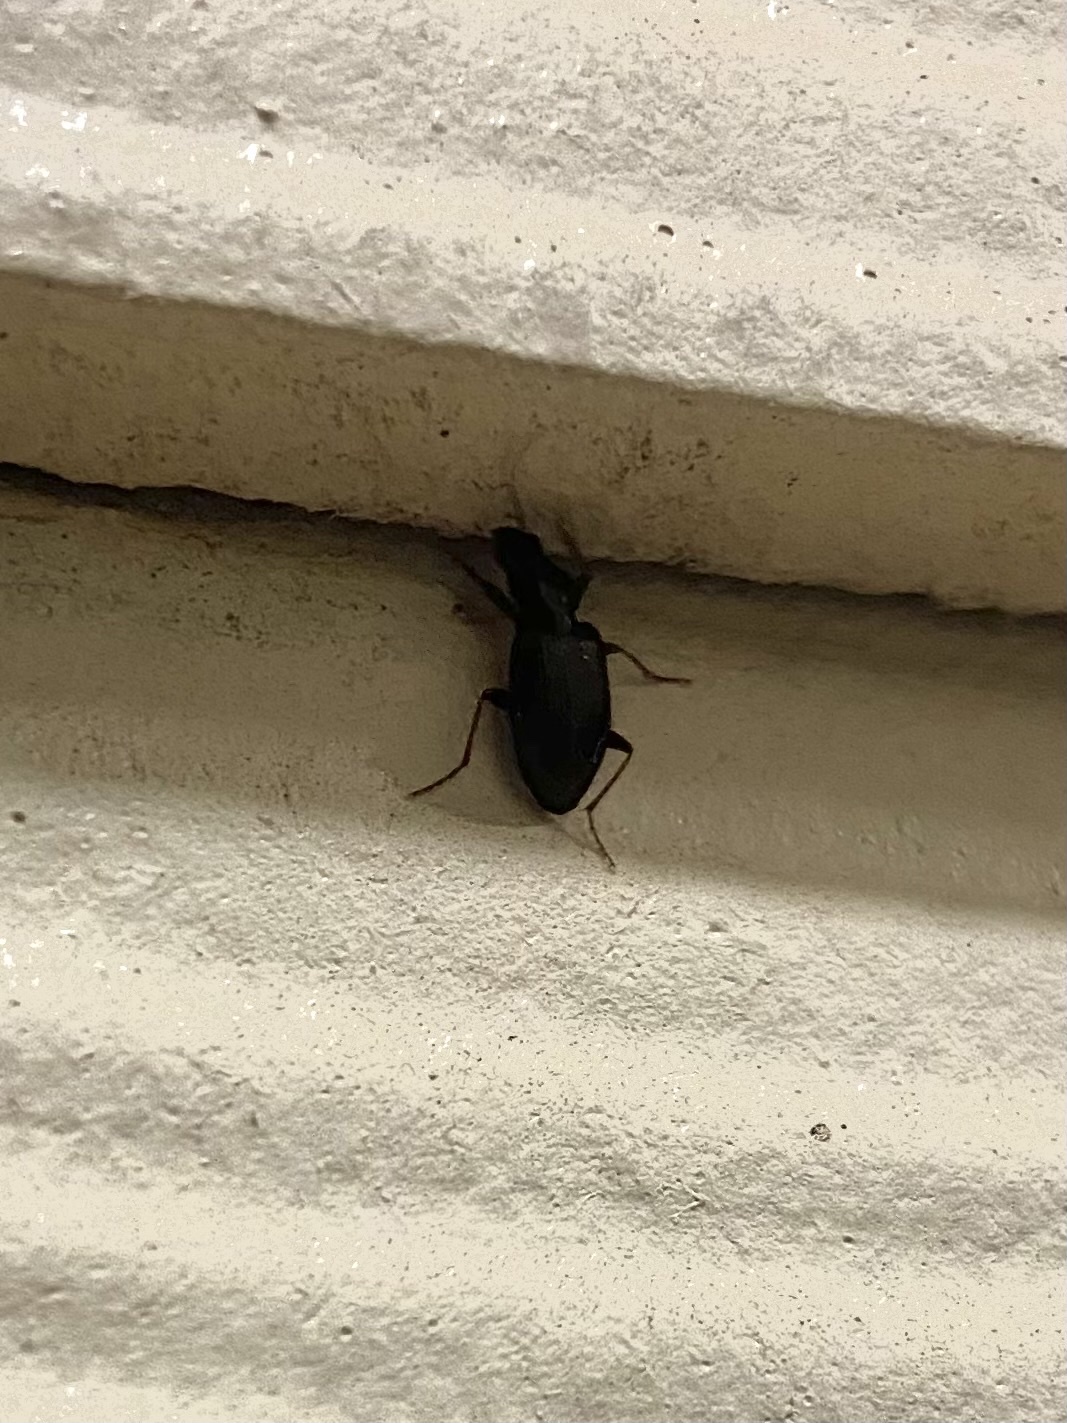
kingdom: Animalia
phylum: Arthropoda
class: Insecta
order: Coleoptera
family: Carabidae
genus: Agonum
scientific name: Agonum punctiforme
